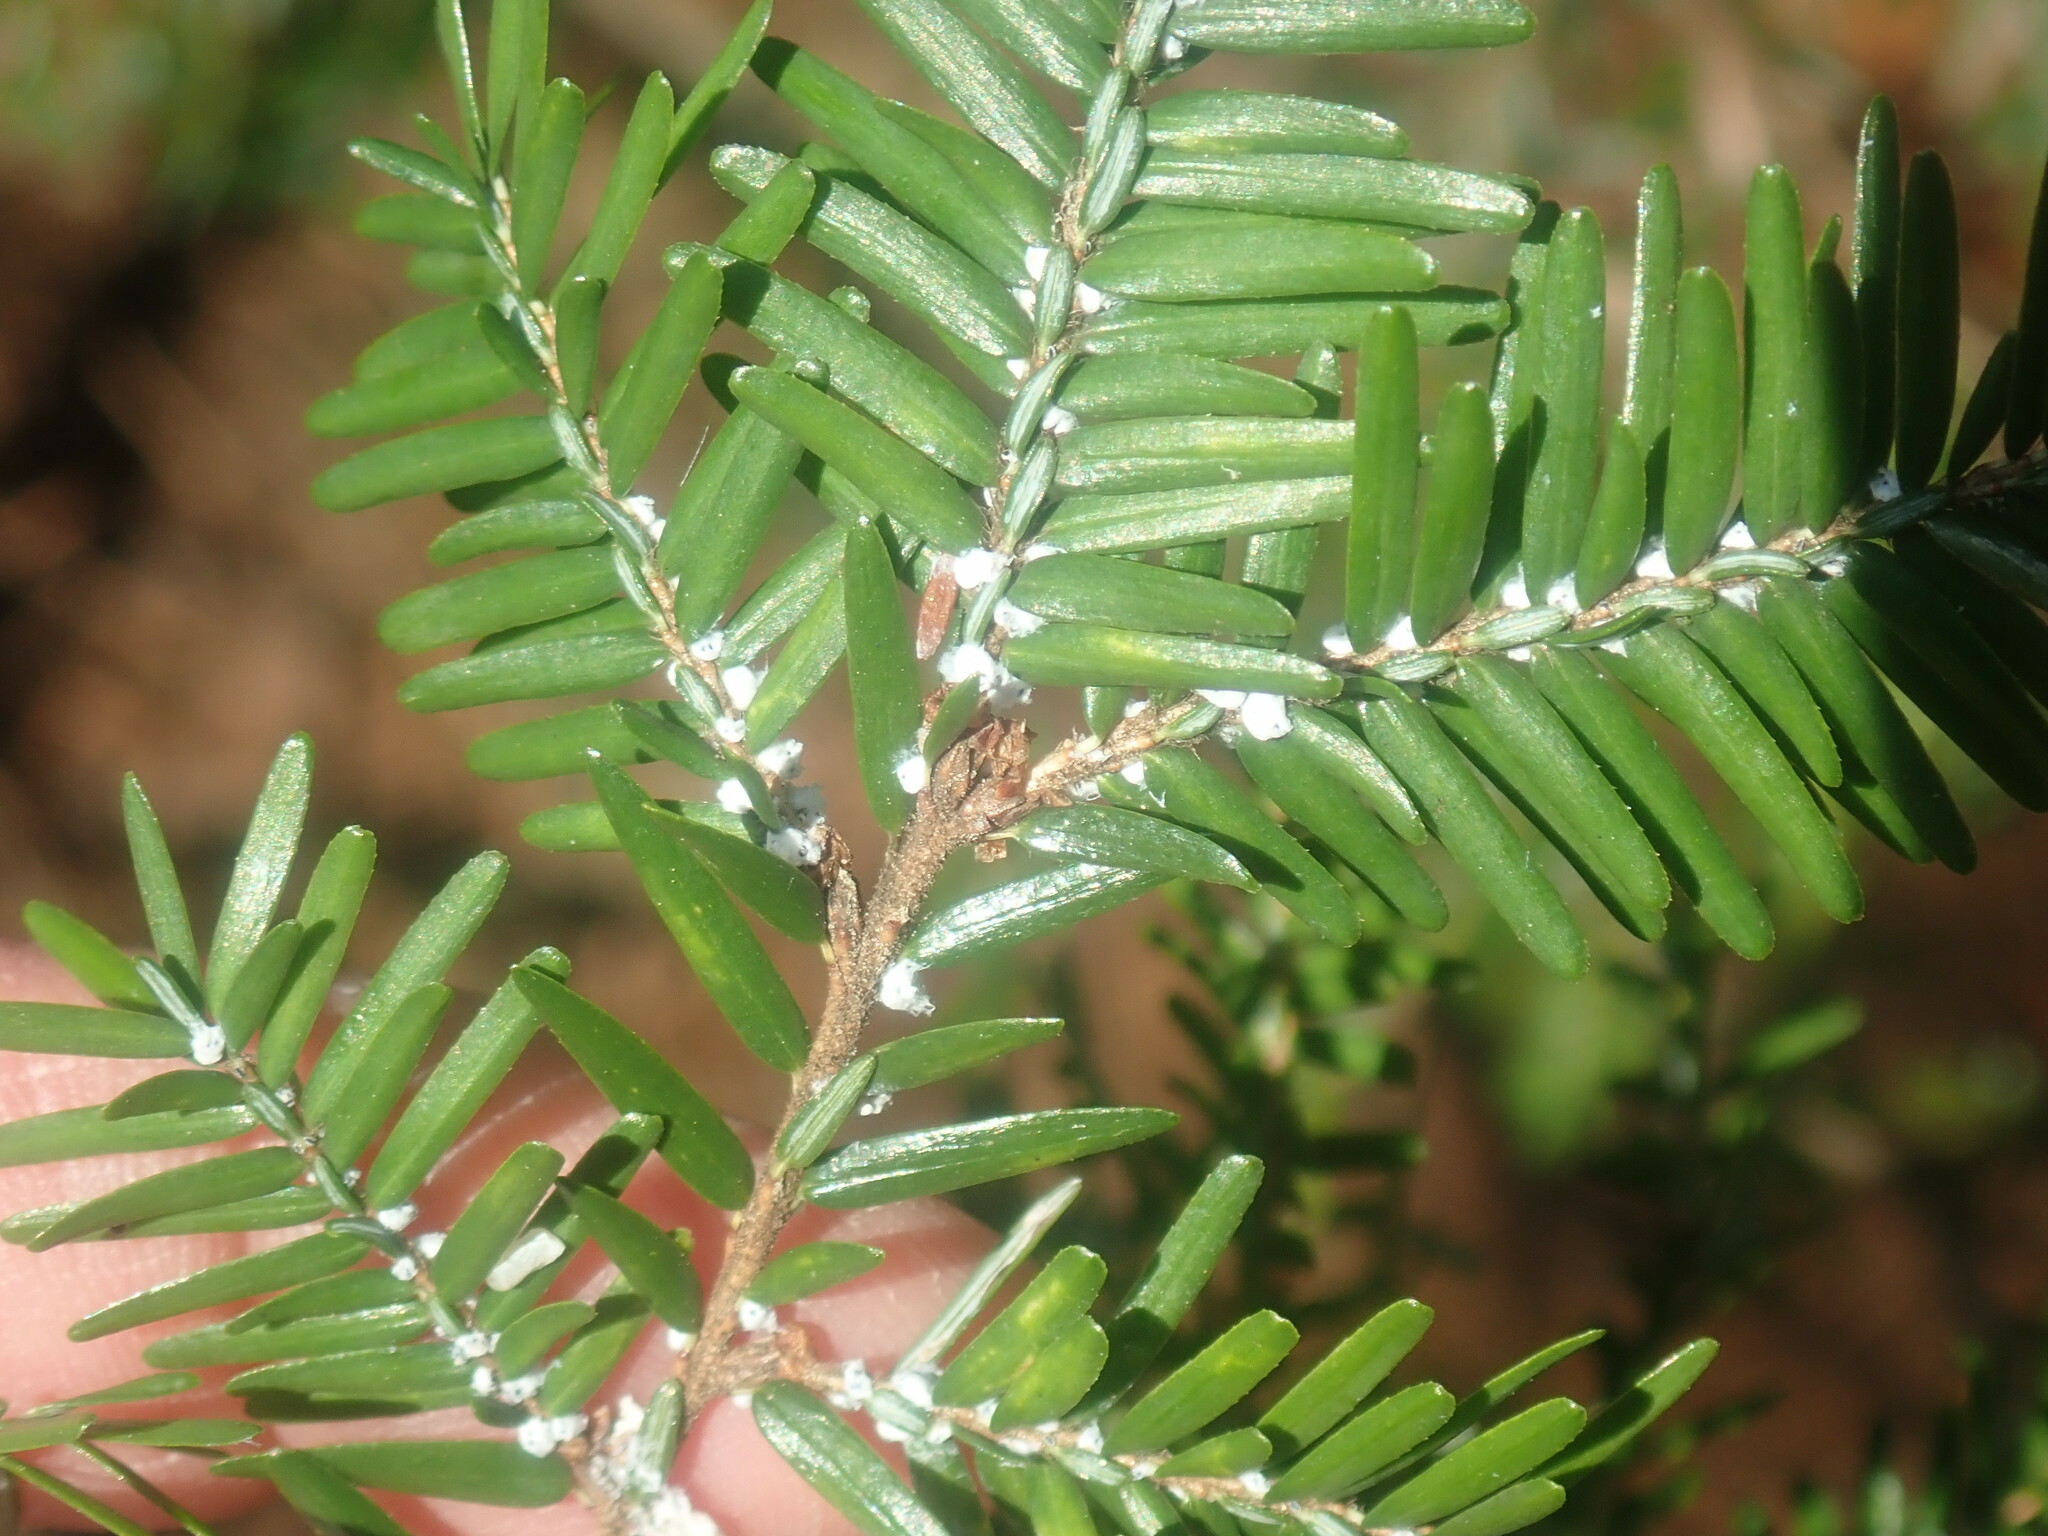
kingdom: Animalia
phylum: Arthropoda
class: Insecta
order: Hemiptera
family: Adelgidae
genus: Adelges
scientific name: Adelges tsugae
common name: Hemlock woolly adelgid
